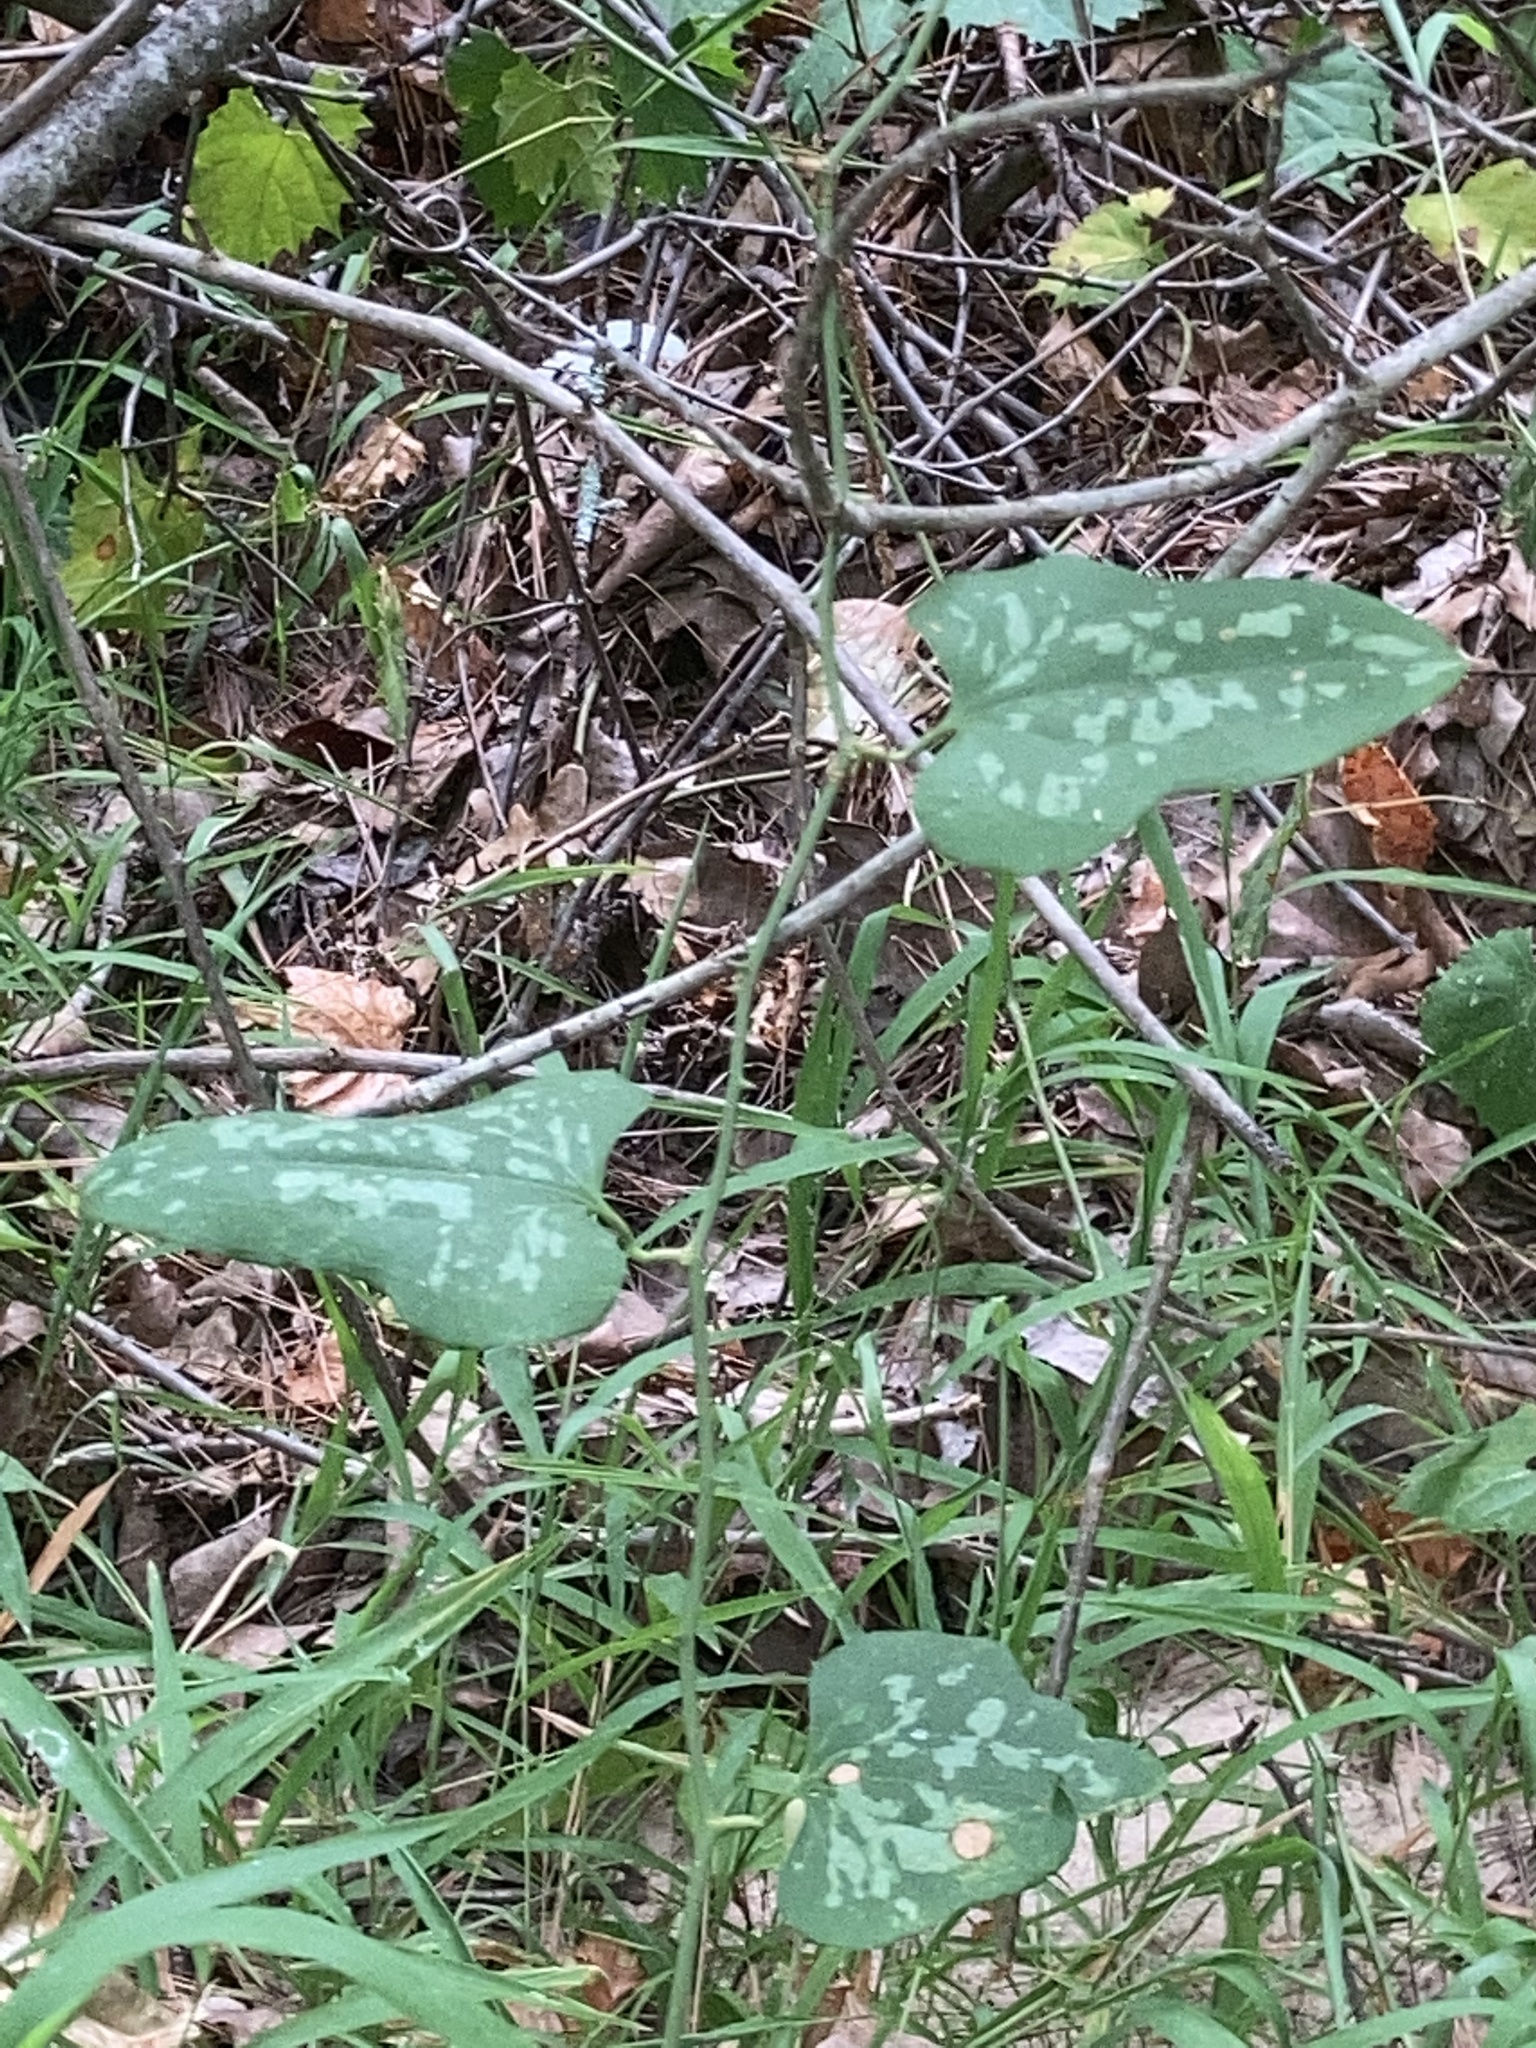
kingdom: Plantae
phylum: Tracheophyta
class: Liliopsida
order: Liliales
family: Smilacaceae
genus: Smilax
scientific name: Smilax bona-nox
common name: Catbrier
